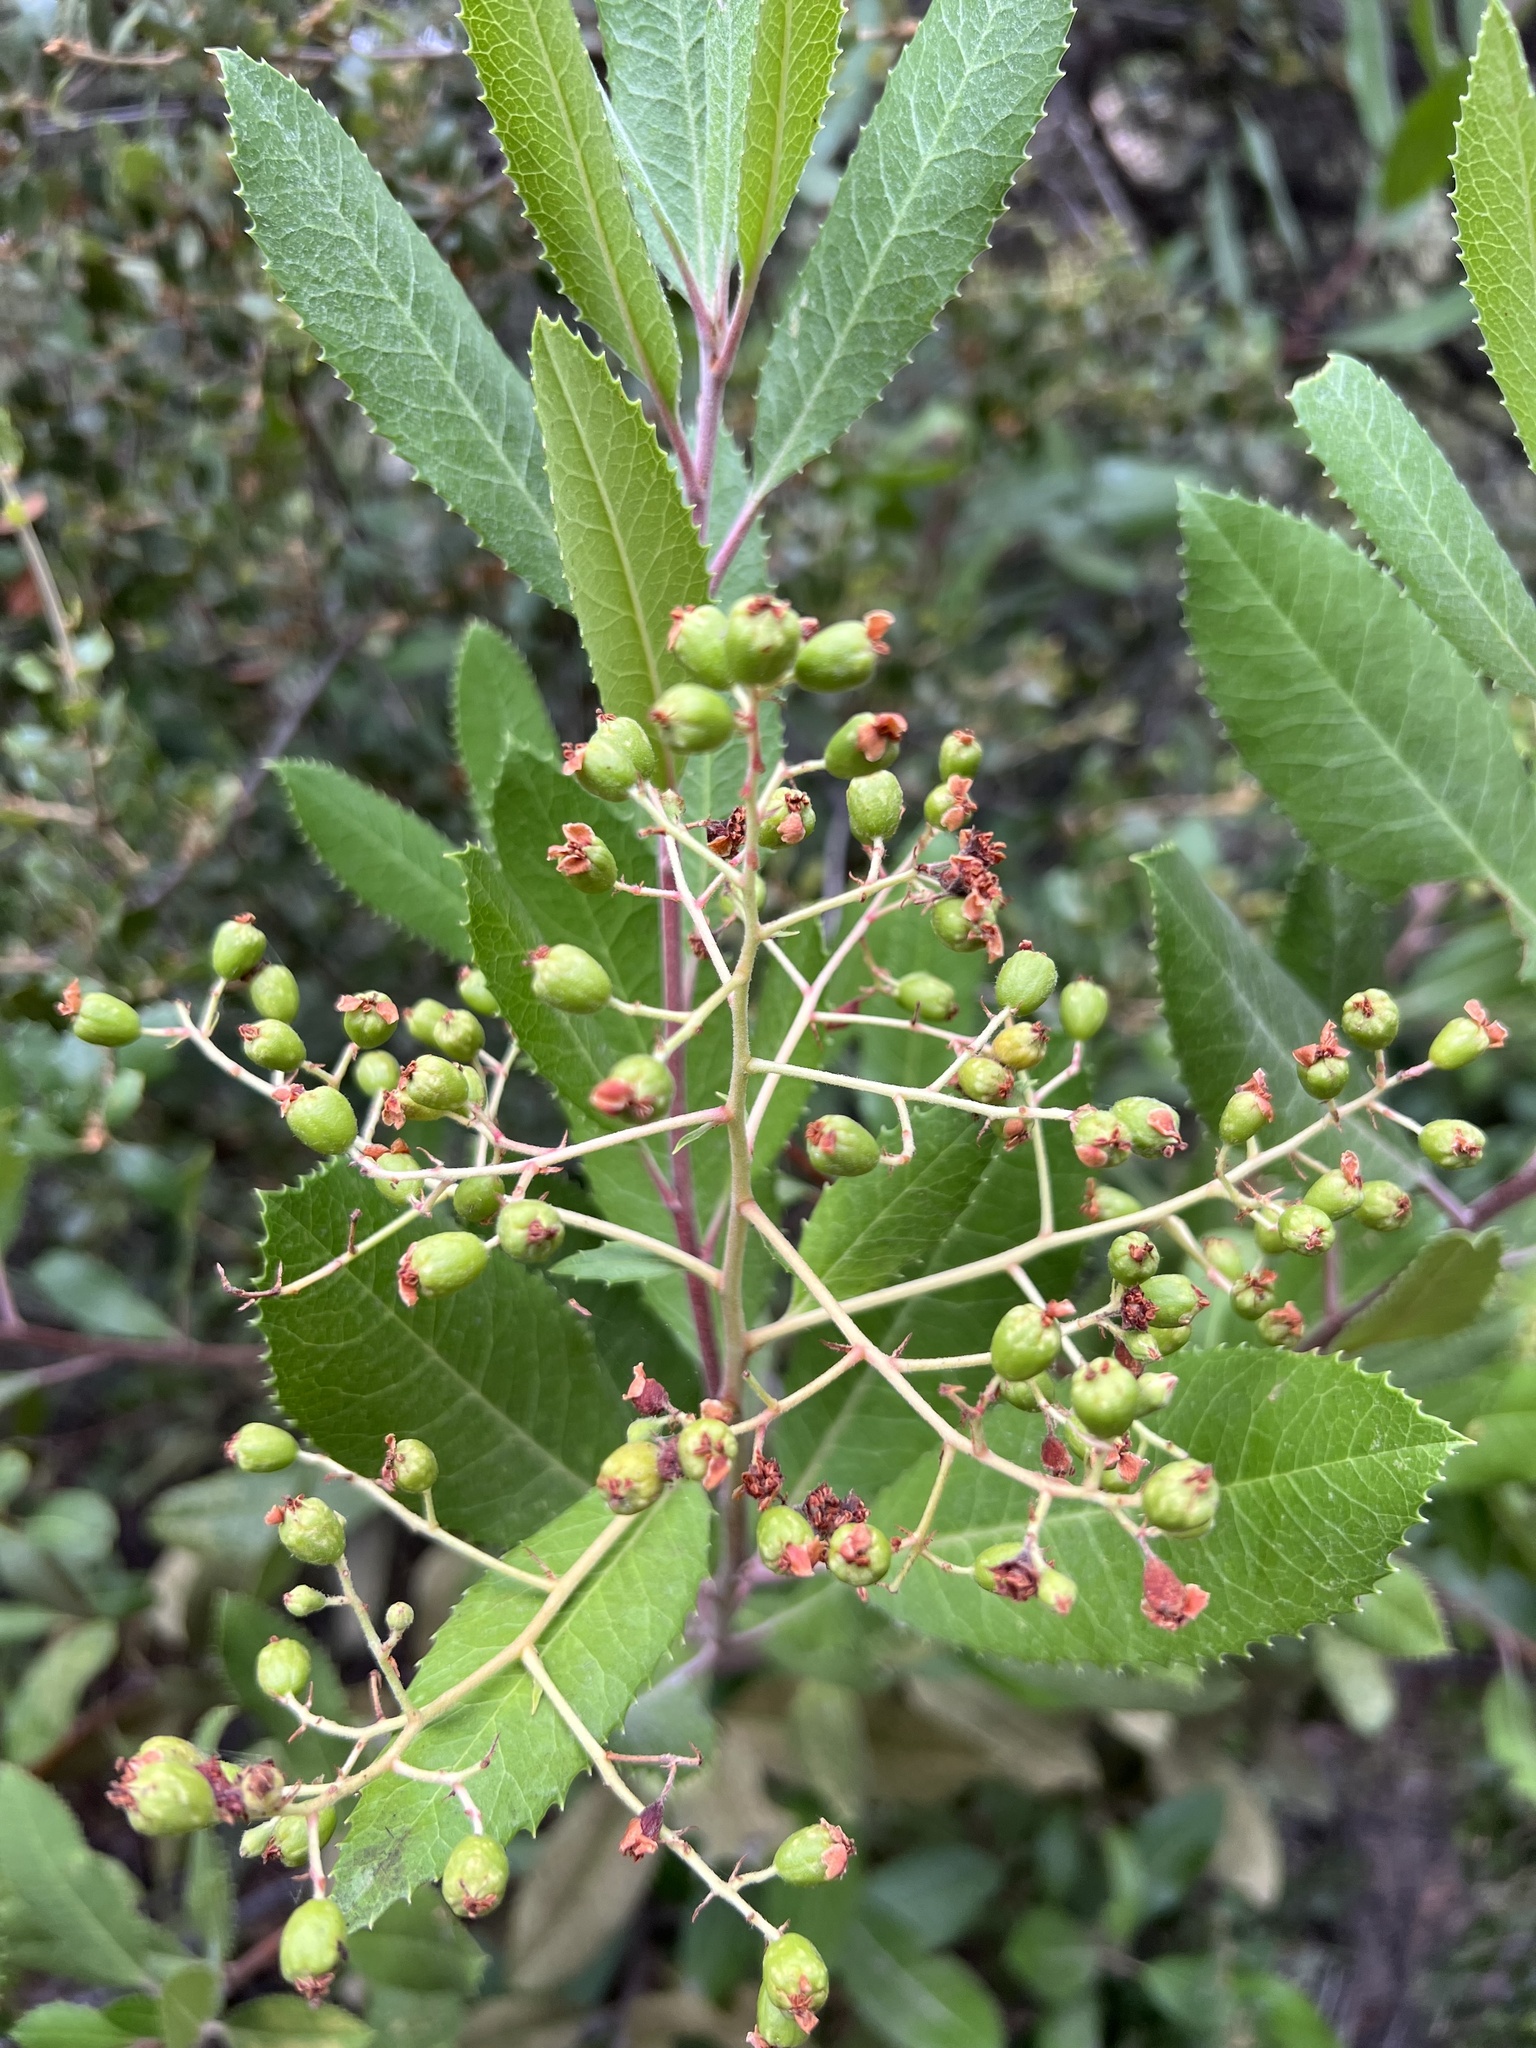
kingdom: Plantae
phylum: Tracheophyta
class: Magnoliopsida
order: Rosales
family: Rosaceae
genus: Heteromeles
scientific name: Heteromeles arbutifolia
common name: California-holly
